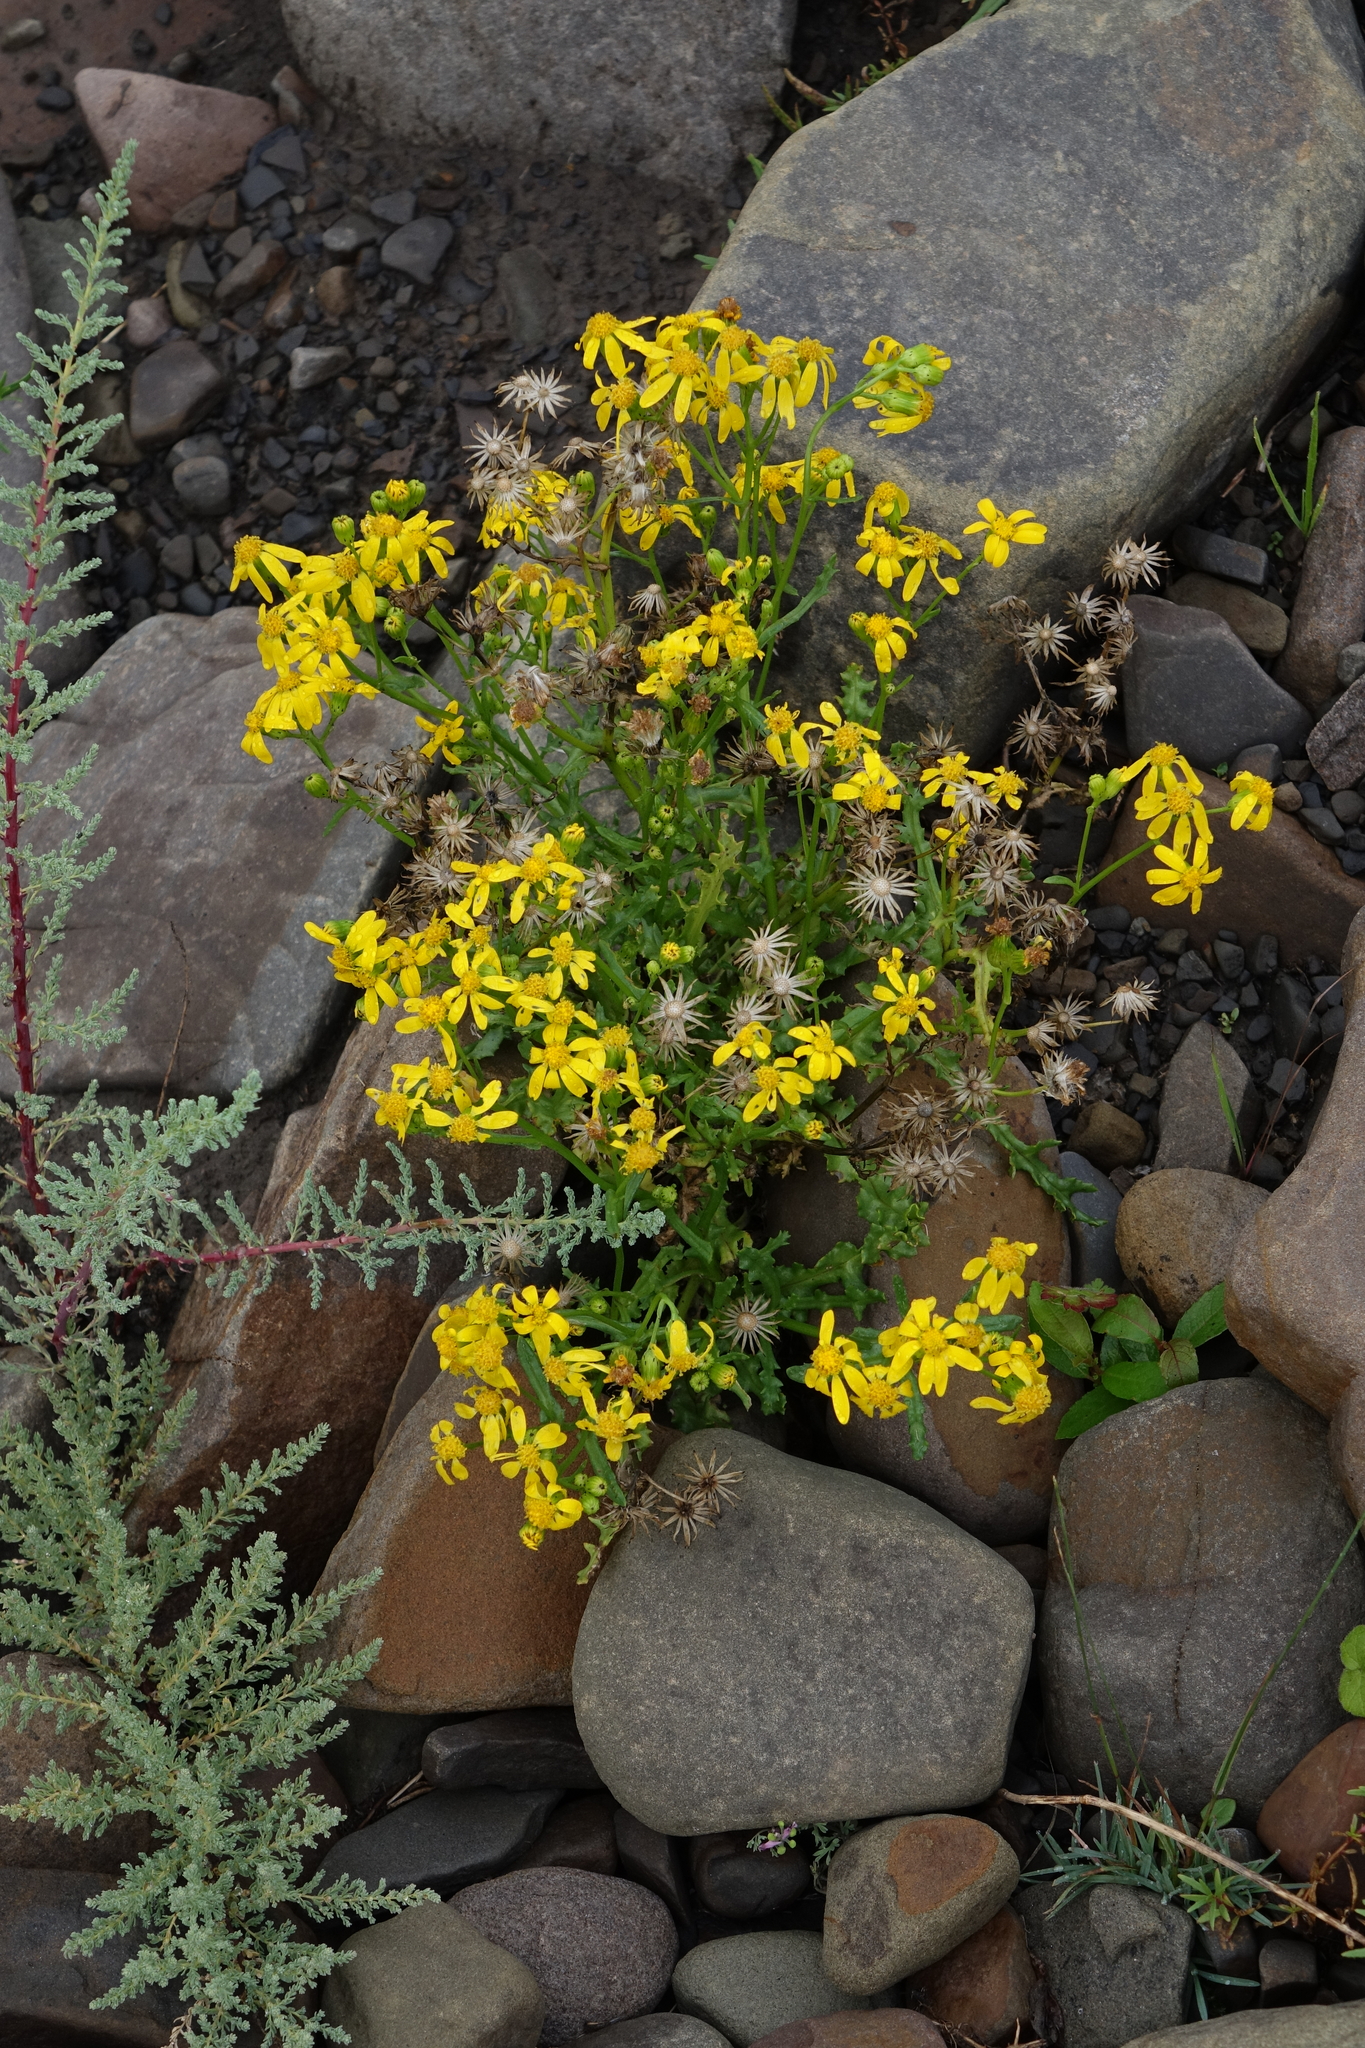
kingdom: Plantae
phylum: Tracheophyta
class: Magnoliopsida
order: Asterales
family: Asteraceae
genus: Senecio
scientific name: Senecio leucanthemifolius
